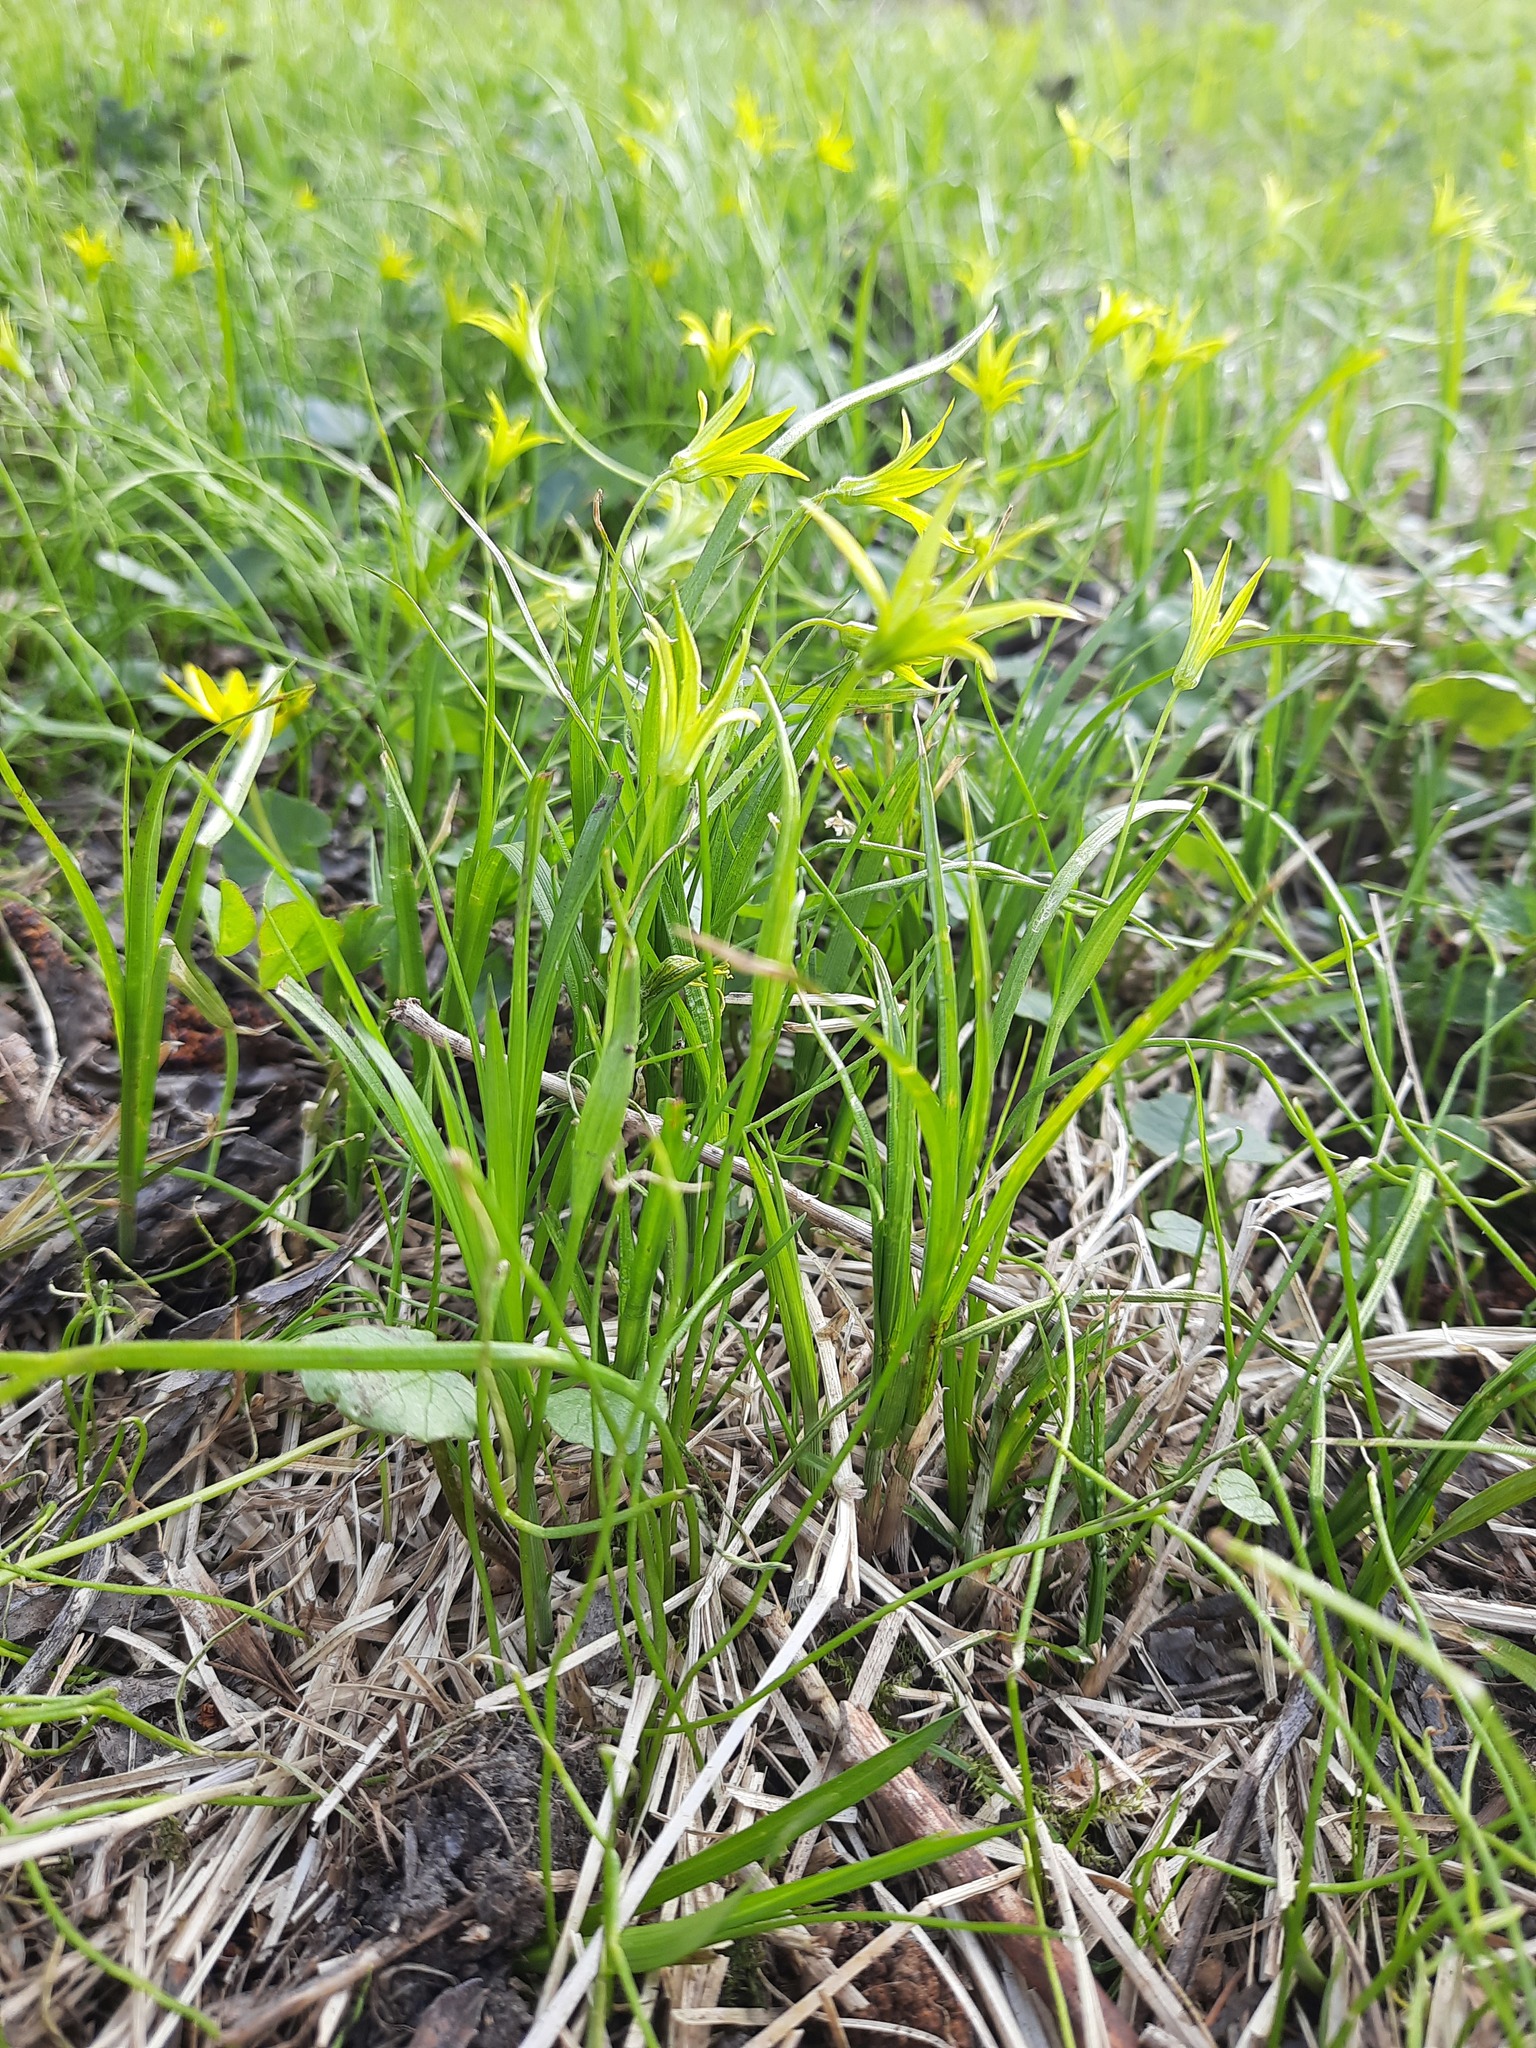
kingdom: Plantae
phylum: Tracheophyta
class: Liliopsida
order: Liliales
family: Liliaceae
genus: Gagea
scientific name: Gagea minima
